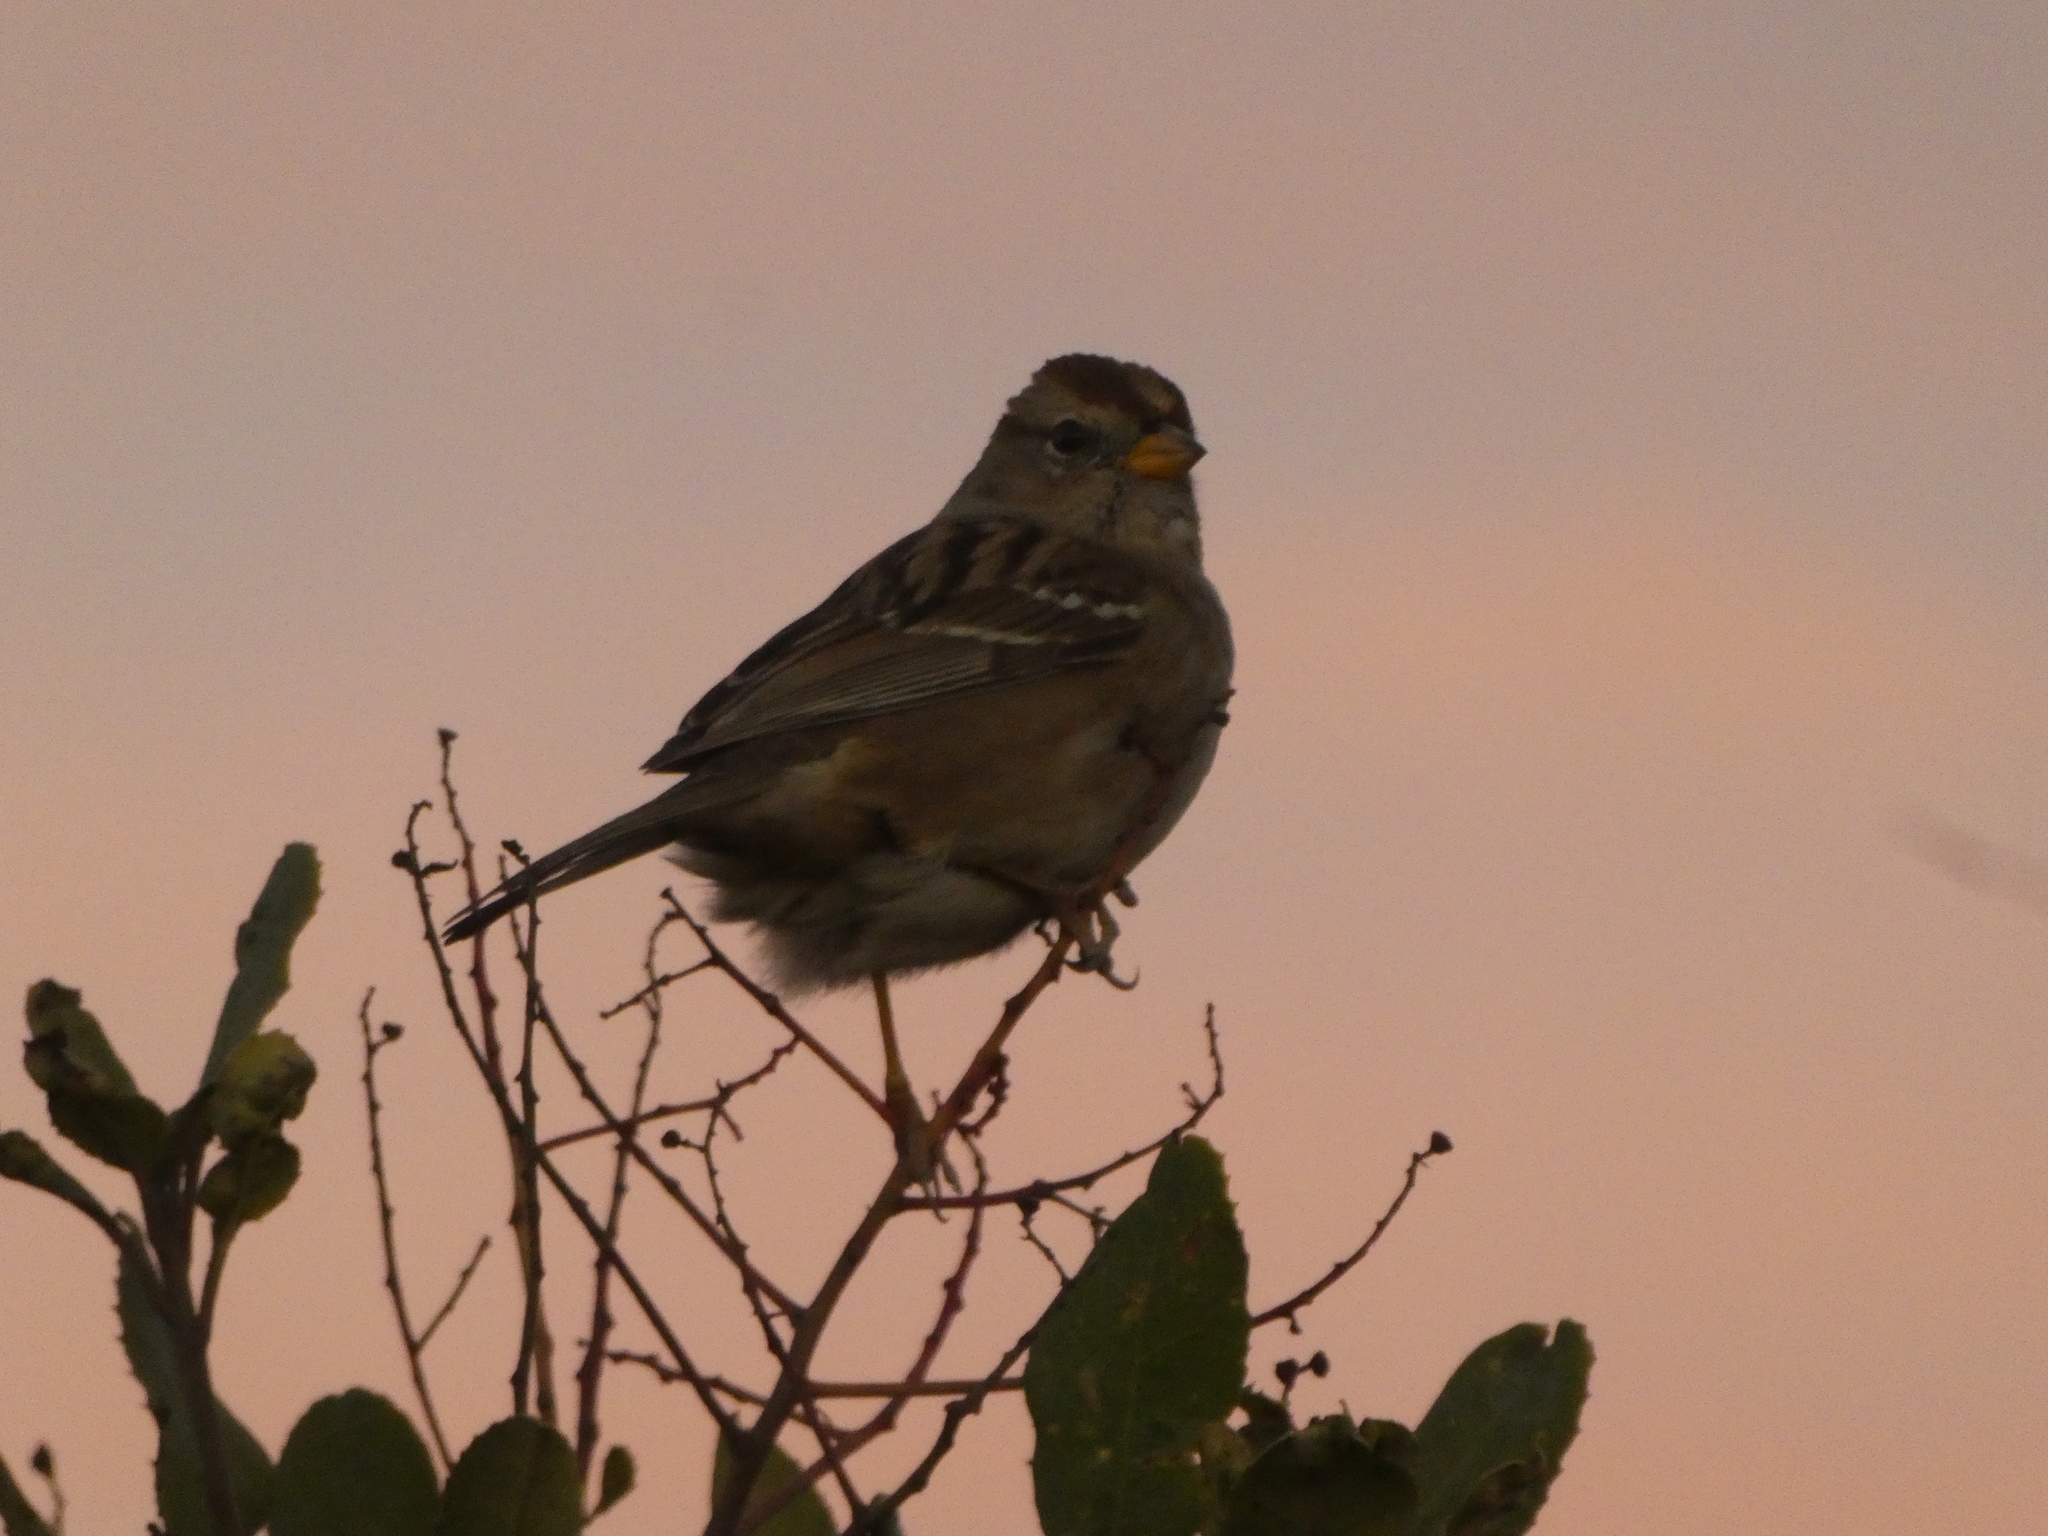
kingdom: Animalia
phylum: Chordata
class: Aves
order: Passeriformes
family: Passerellidae
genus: Zonotrichia
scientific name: Zonotrichia leucophrys
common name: White-crowned sparrow
